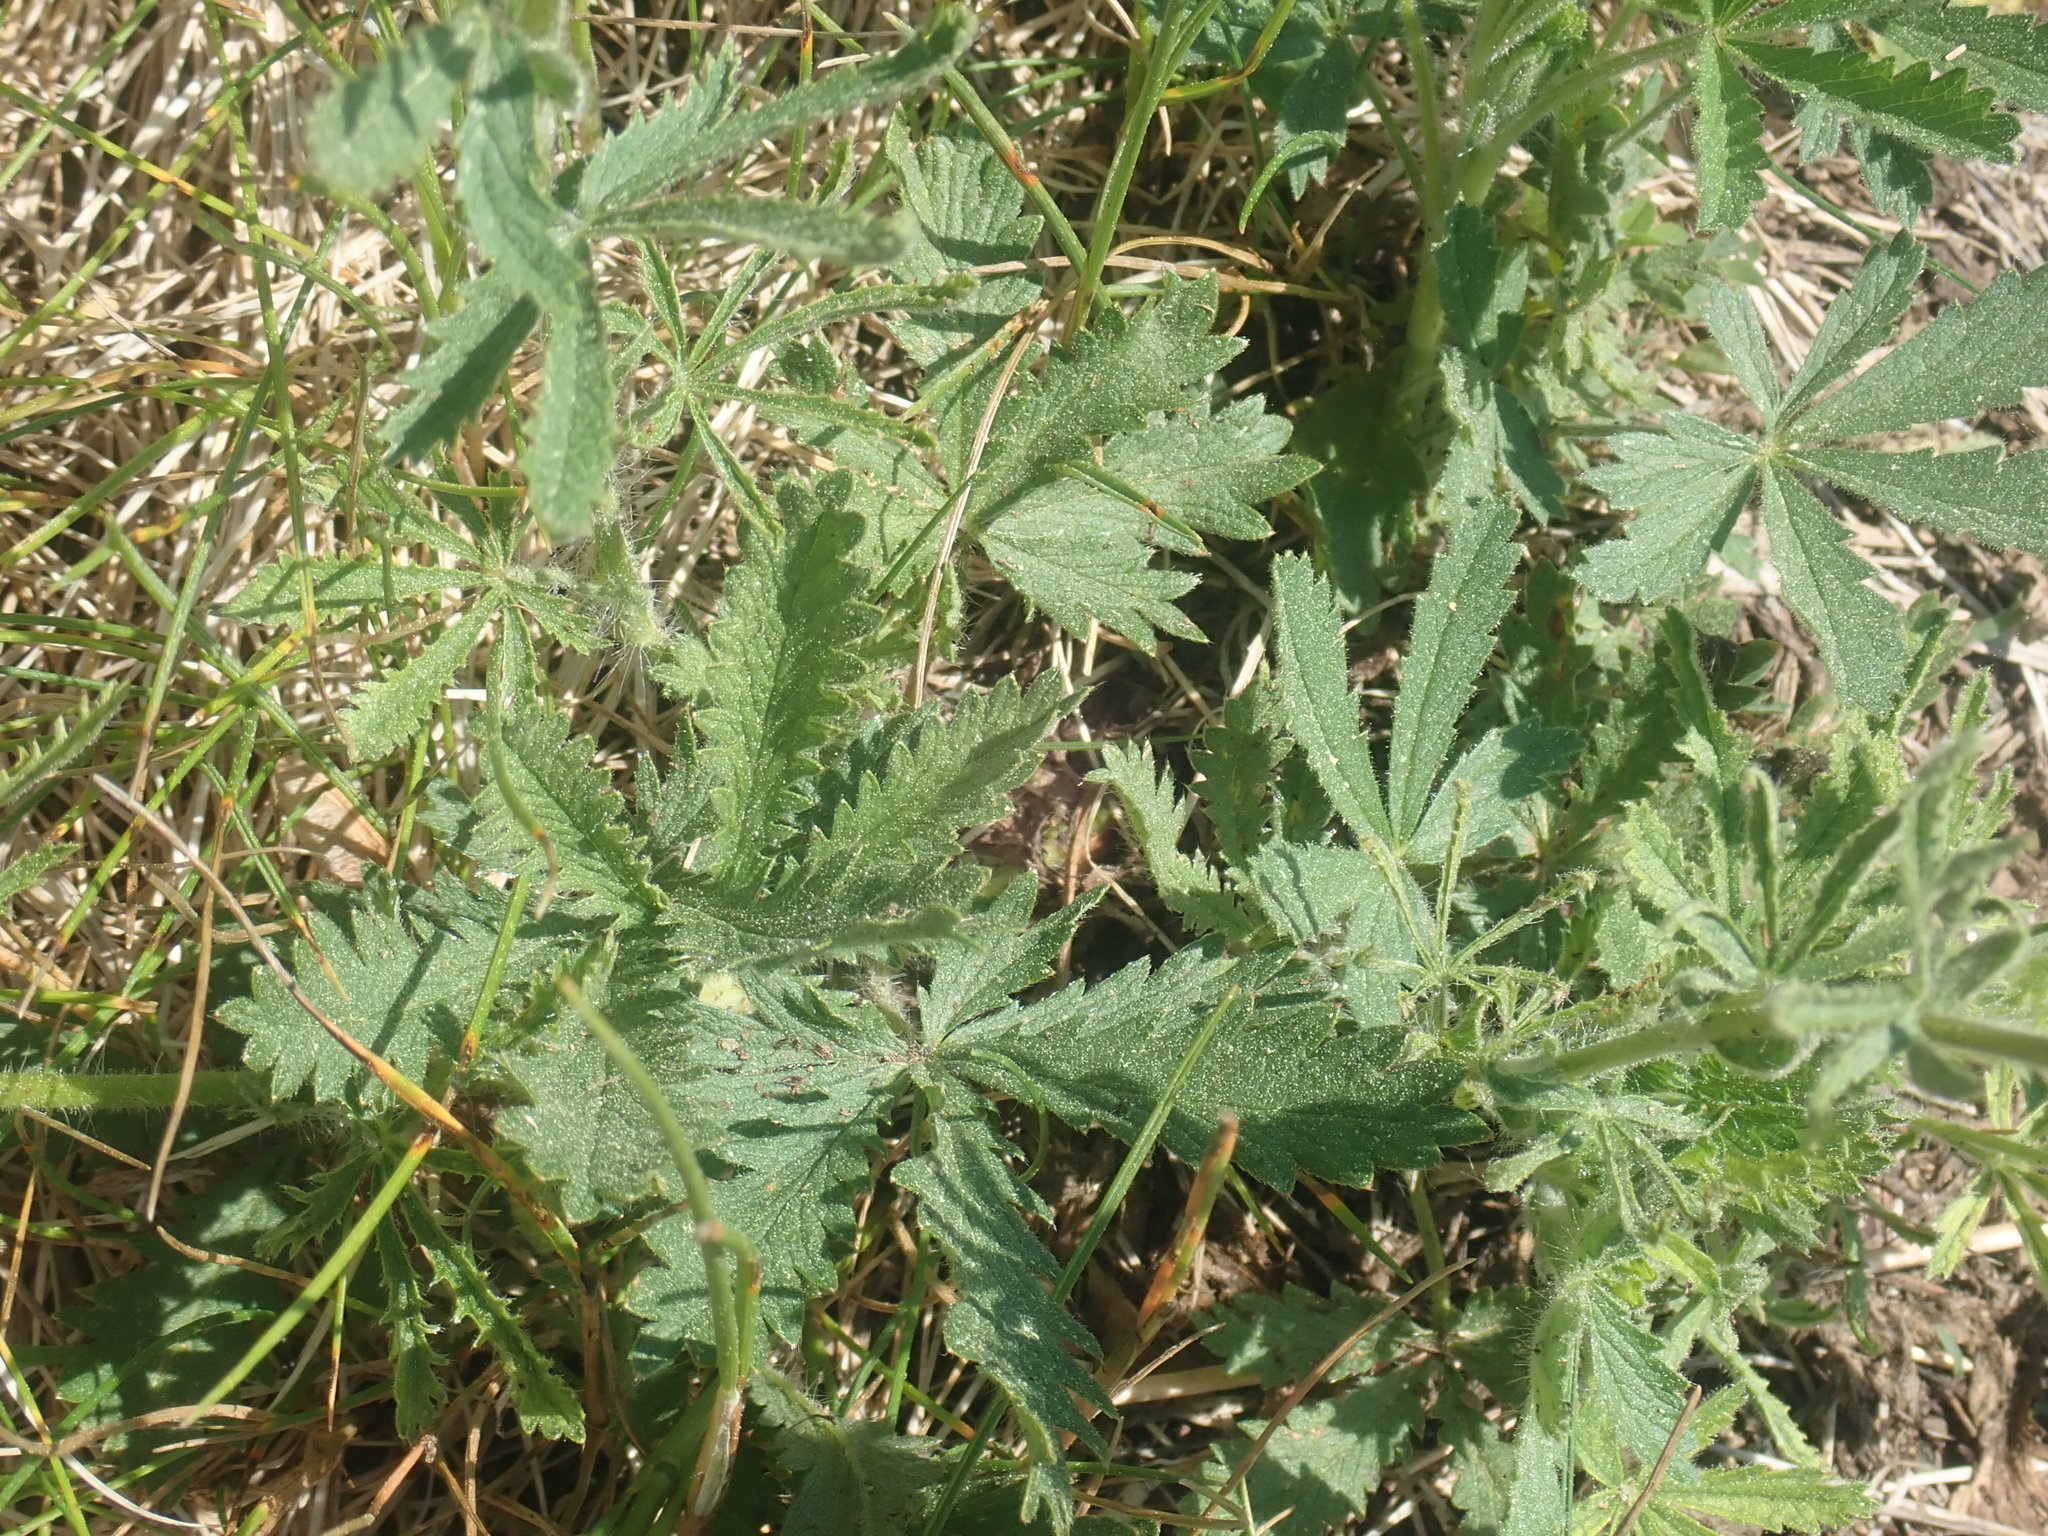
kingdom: Plantae
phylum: Tracheophyta
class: Magnoliopsida
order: Rosales
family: Rosaceae
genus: Potentilla
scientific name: Potentilla recta
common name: Sulphur cinquefoil
